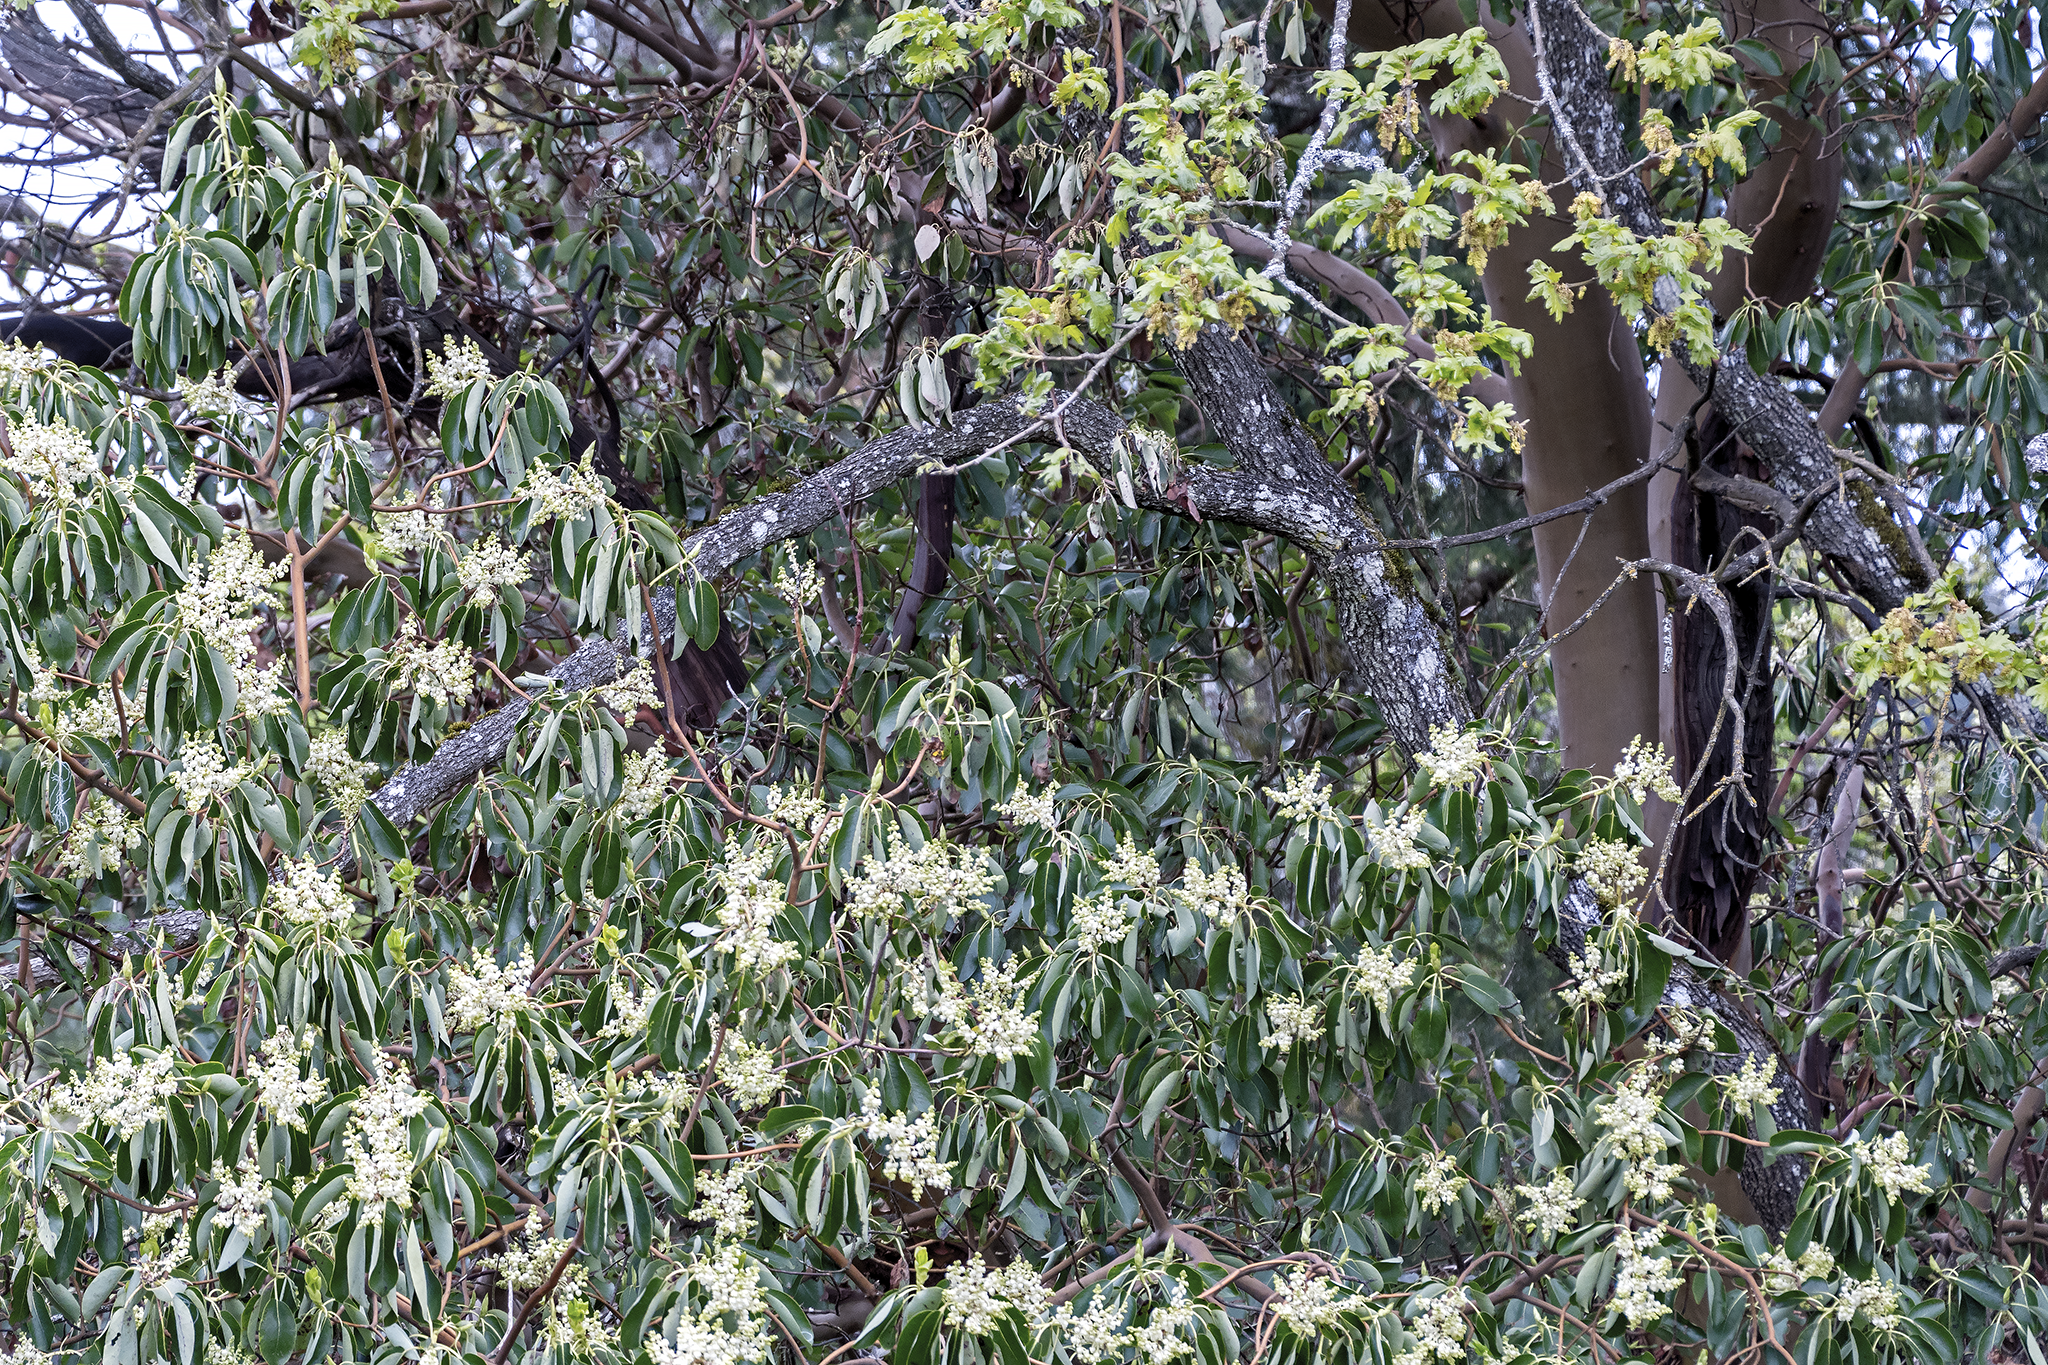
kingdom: Plantae
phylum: Tracheophyta
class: Magnoliopsida
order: Ericales
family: Ericaceae
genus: Arbutus
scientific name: Arbutus menziesii
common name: Pacific madrone
